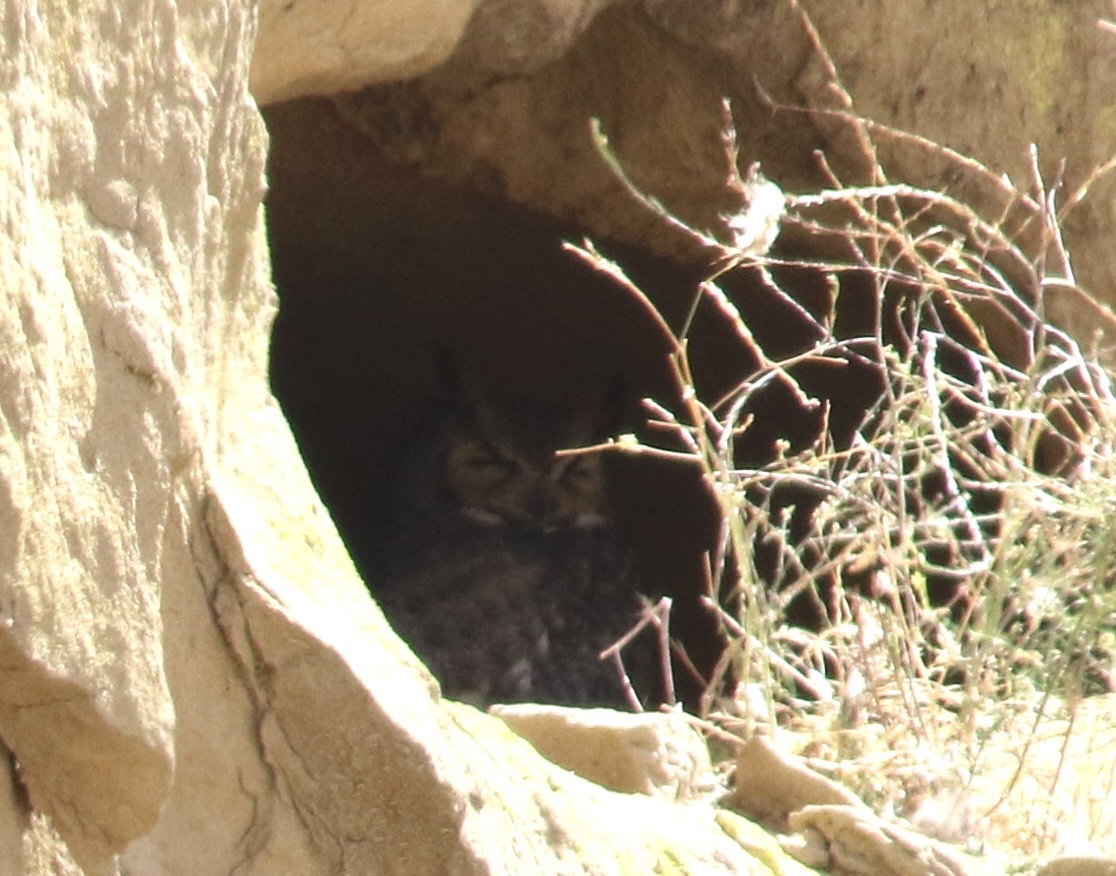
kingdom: Animalia
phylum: Chordata
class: Aves
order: Strigiformes
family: Strigidae
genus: Bubo
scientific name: Bubo virginianus
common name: Great horned owl
